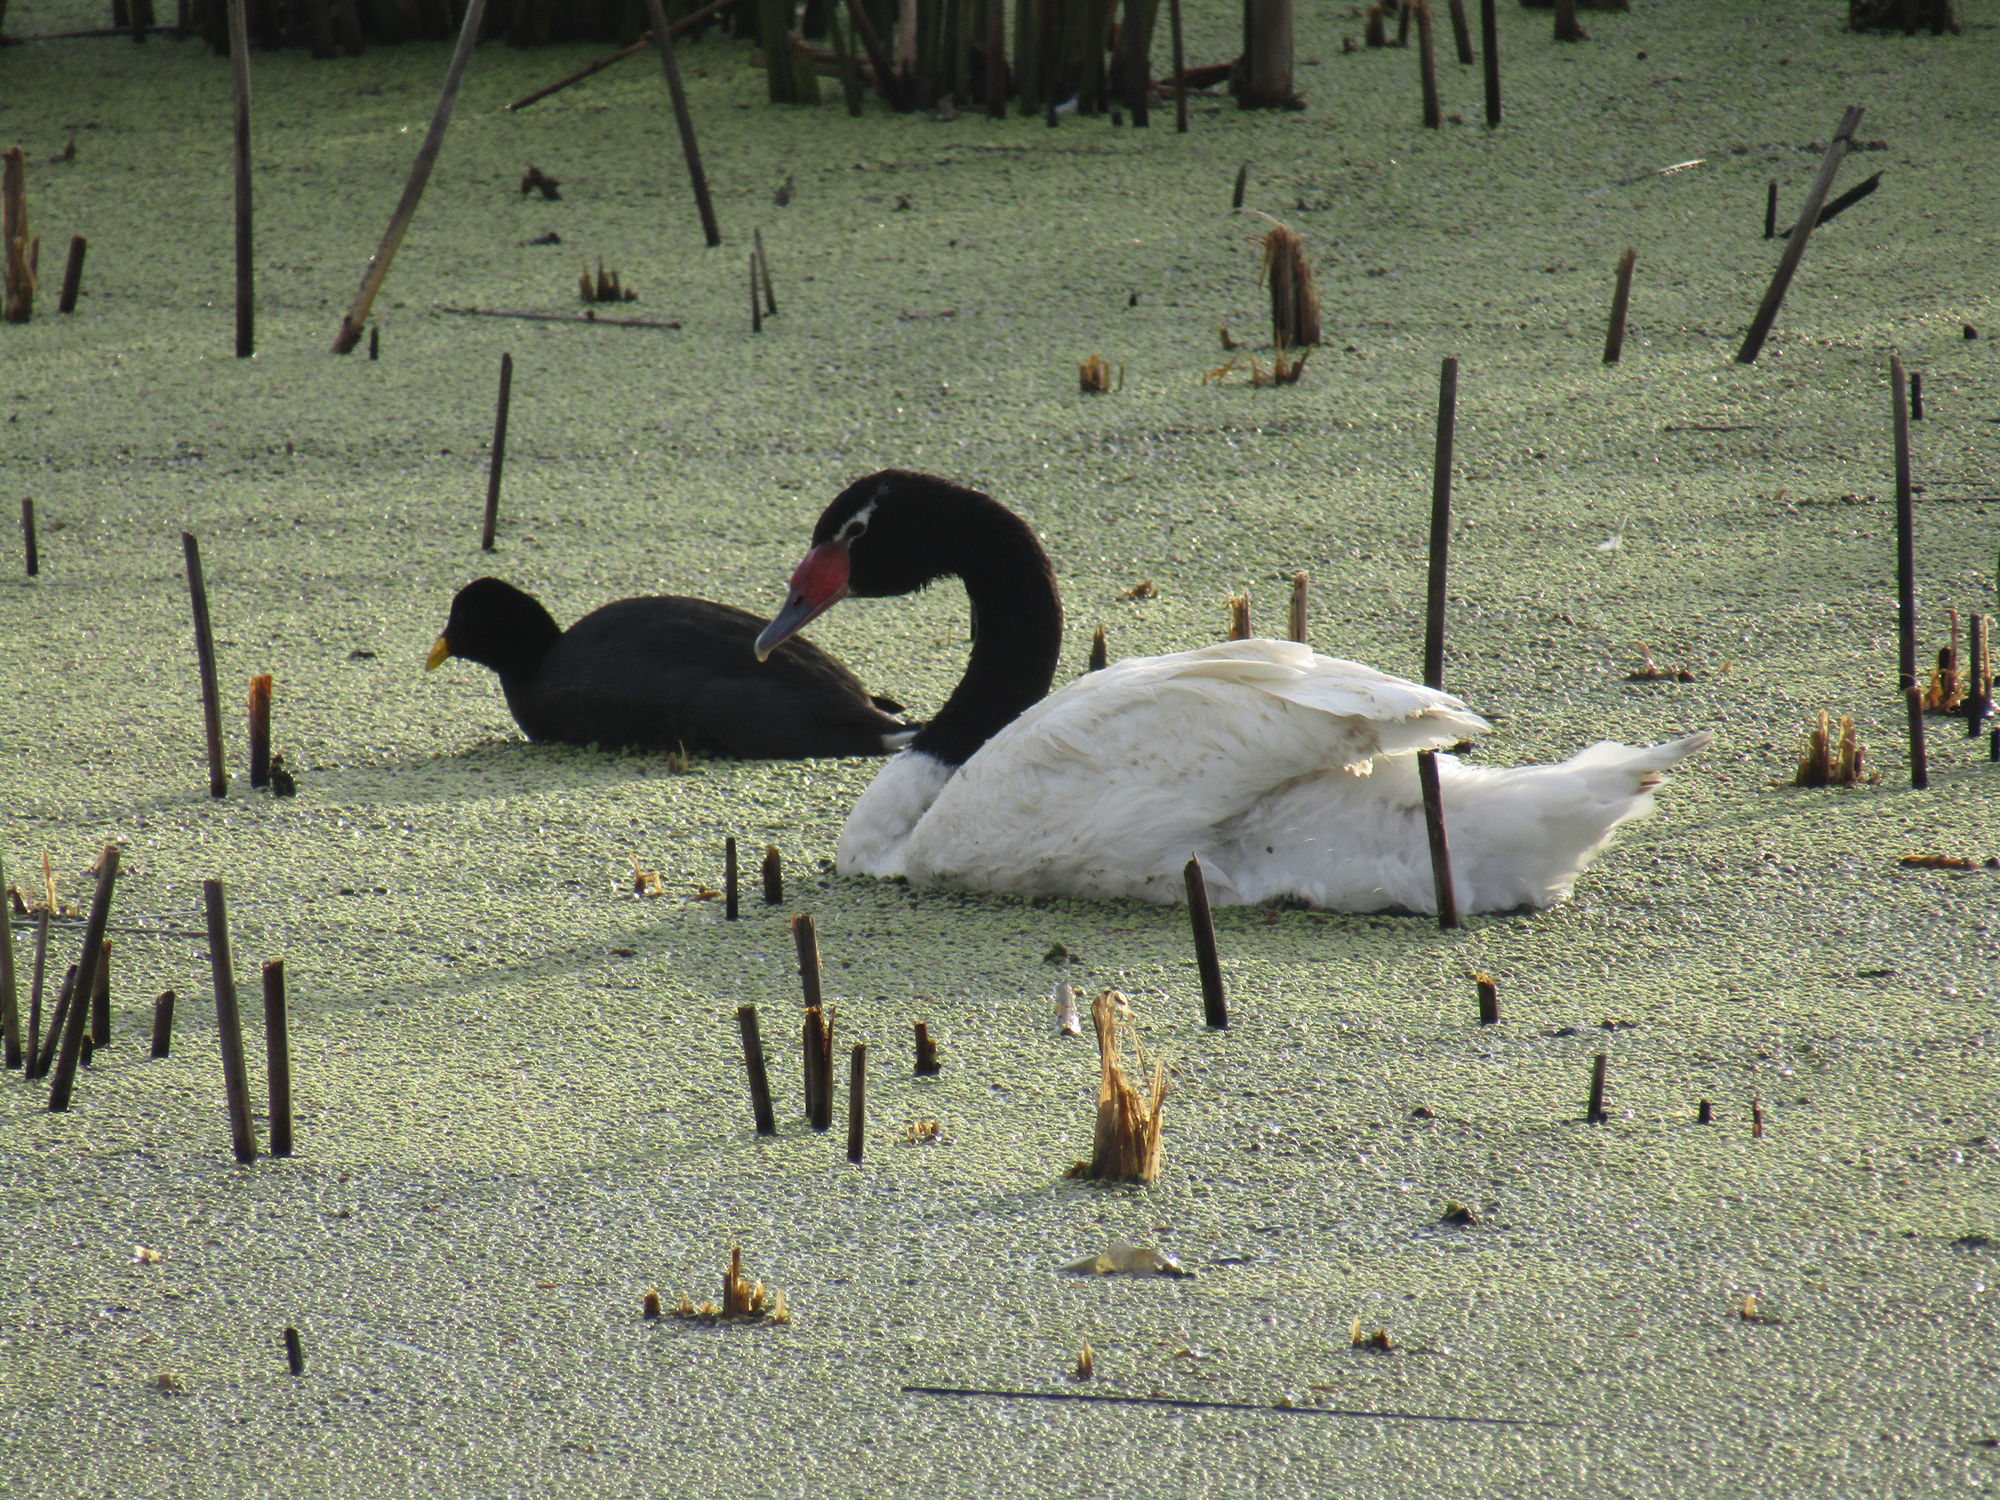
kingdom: Animalia
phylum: Chordata
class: Aves
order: Anseriformes
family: Anatidae
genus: Cygnus
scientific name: Cygnus melancoryphus
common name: Black-necked swan
